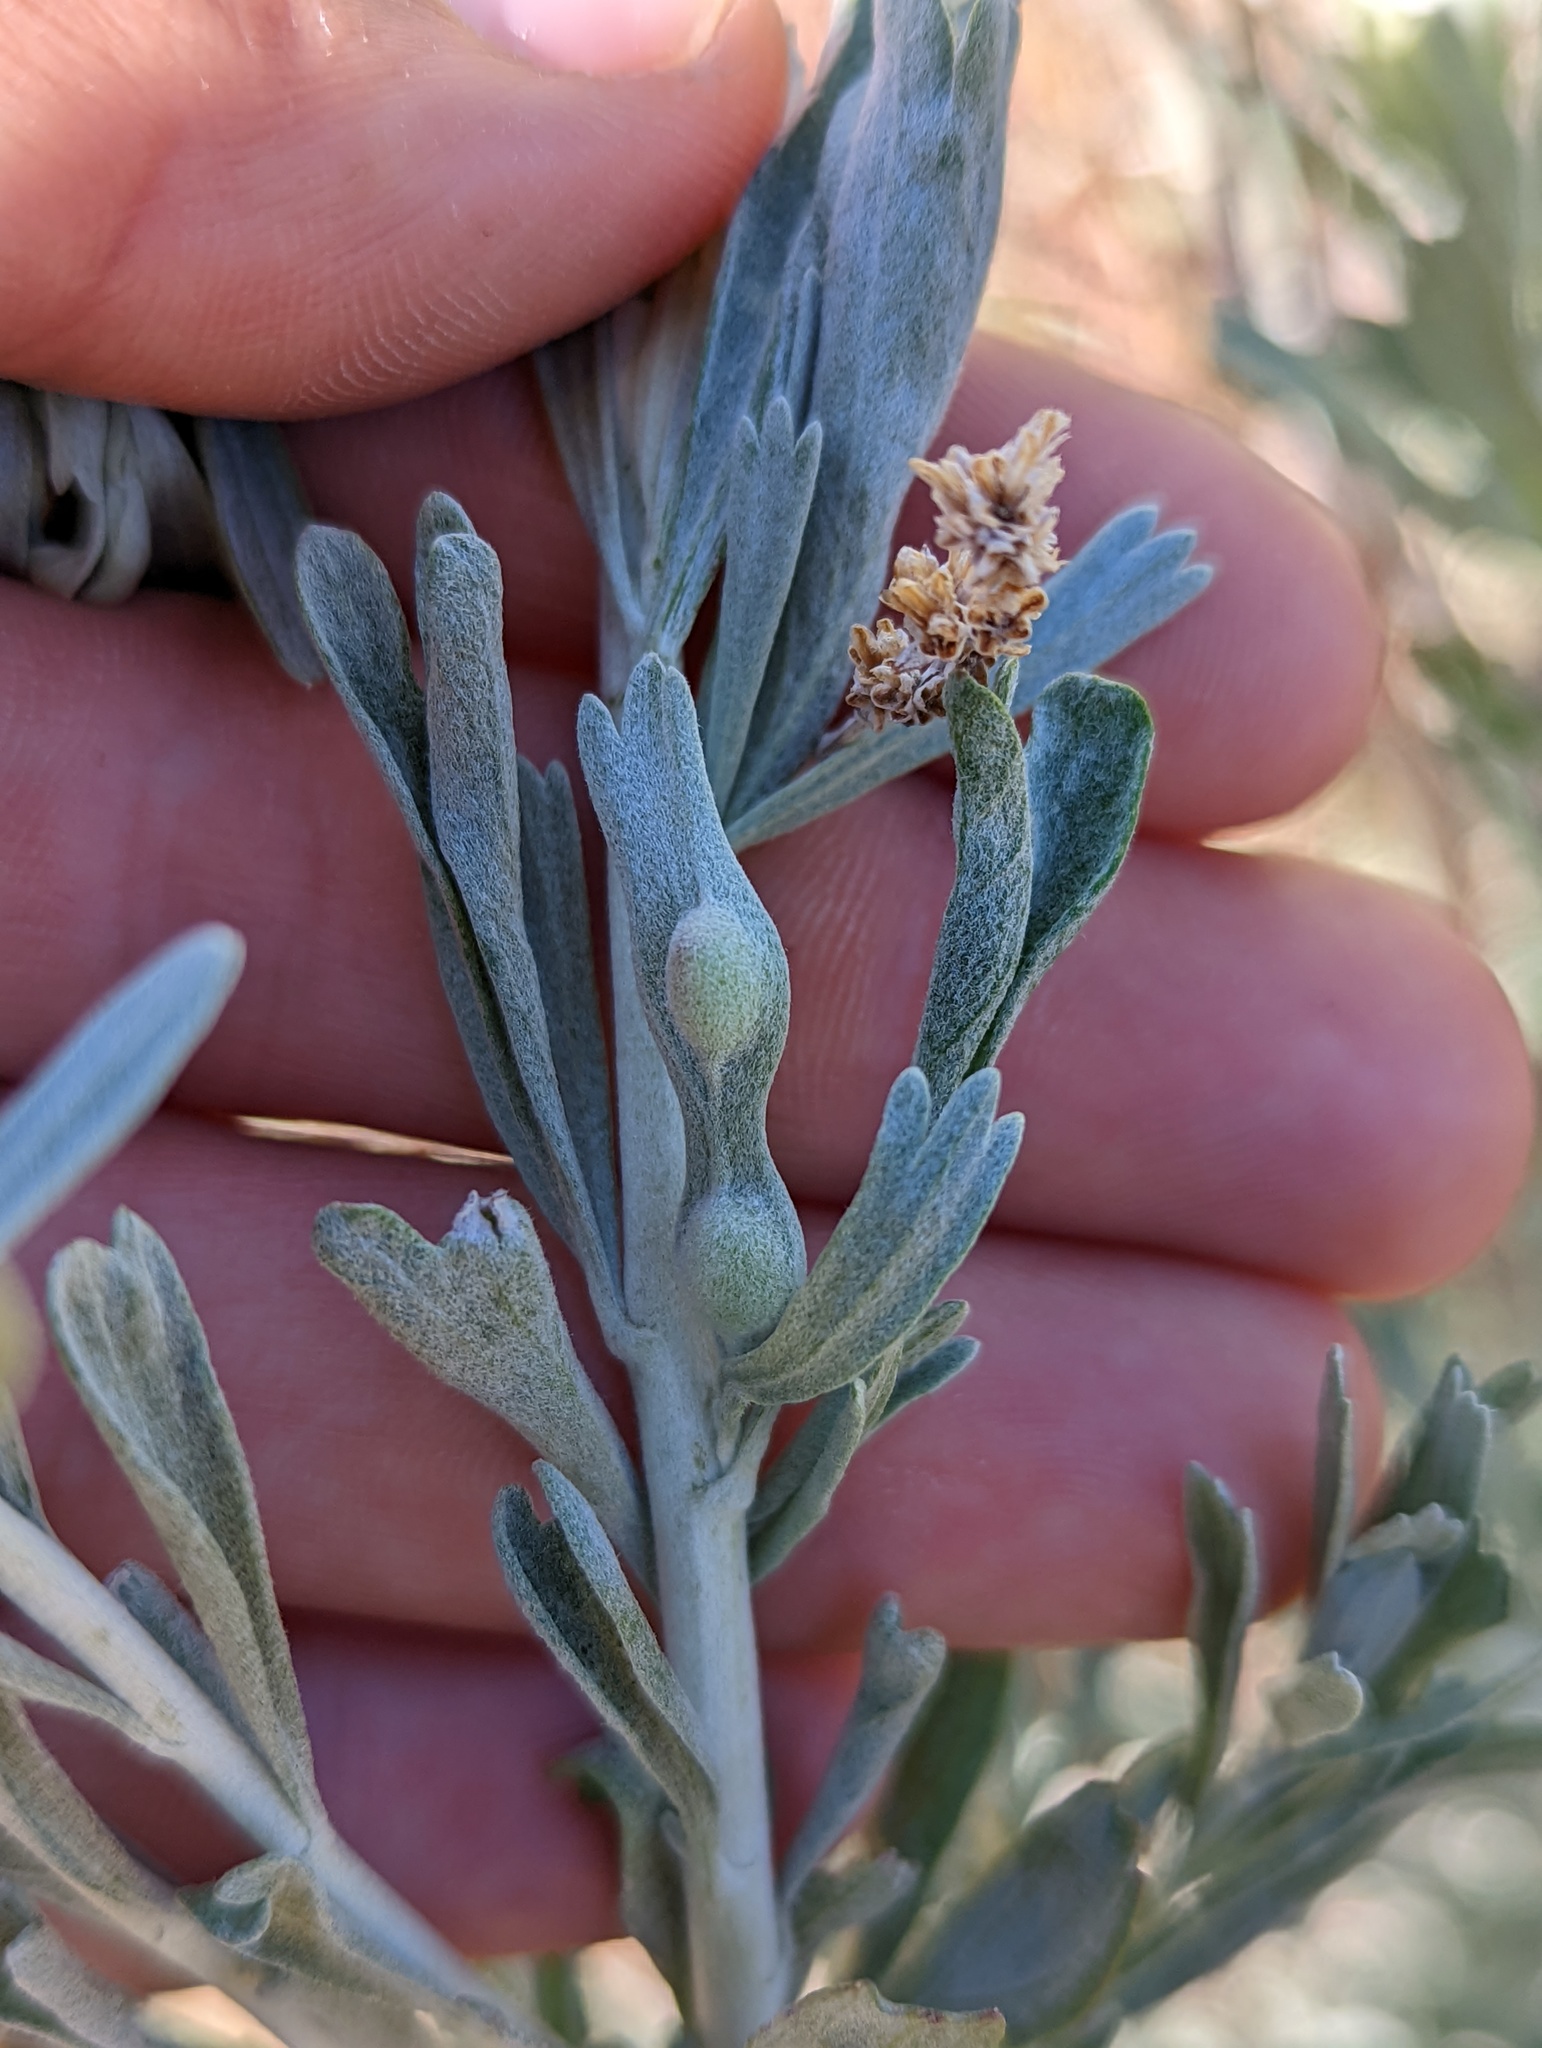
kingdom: Animalia
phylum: Arthropoda
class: Insecta
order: Diptera
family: Cecidomyiidae
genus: Rhopalomyia
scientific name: Rhopalomyia tumidibulla
